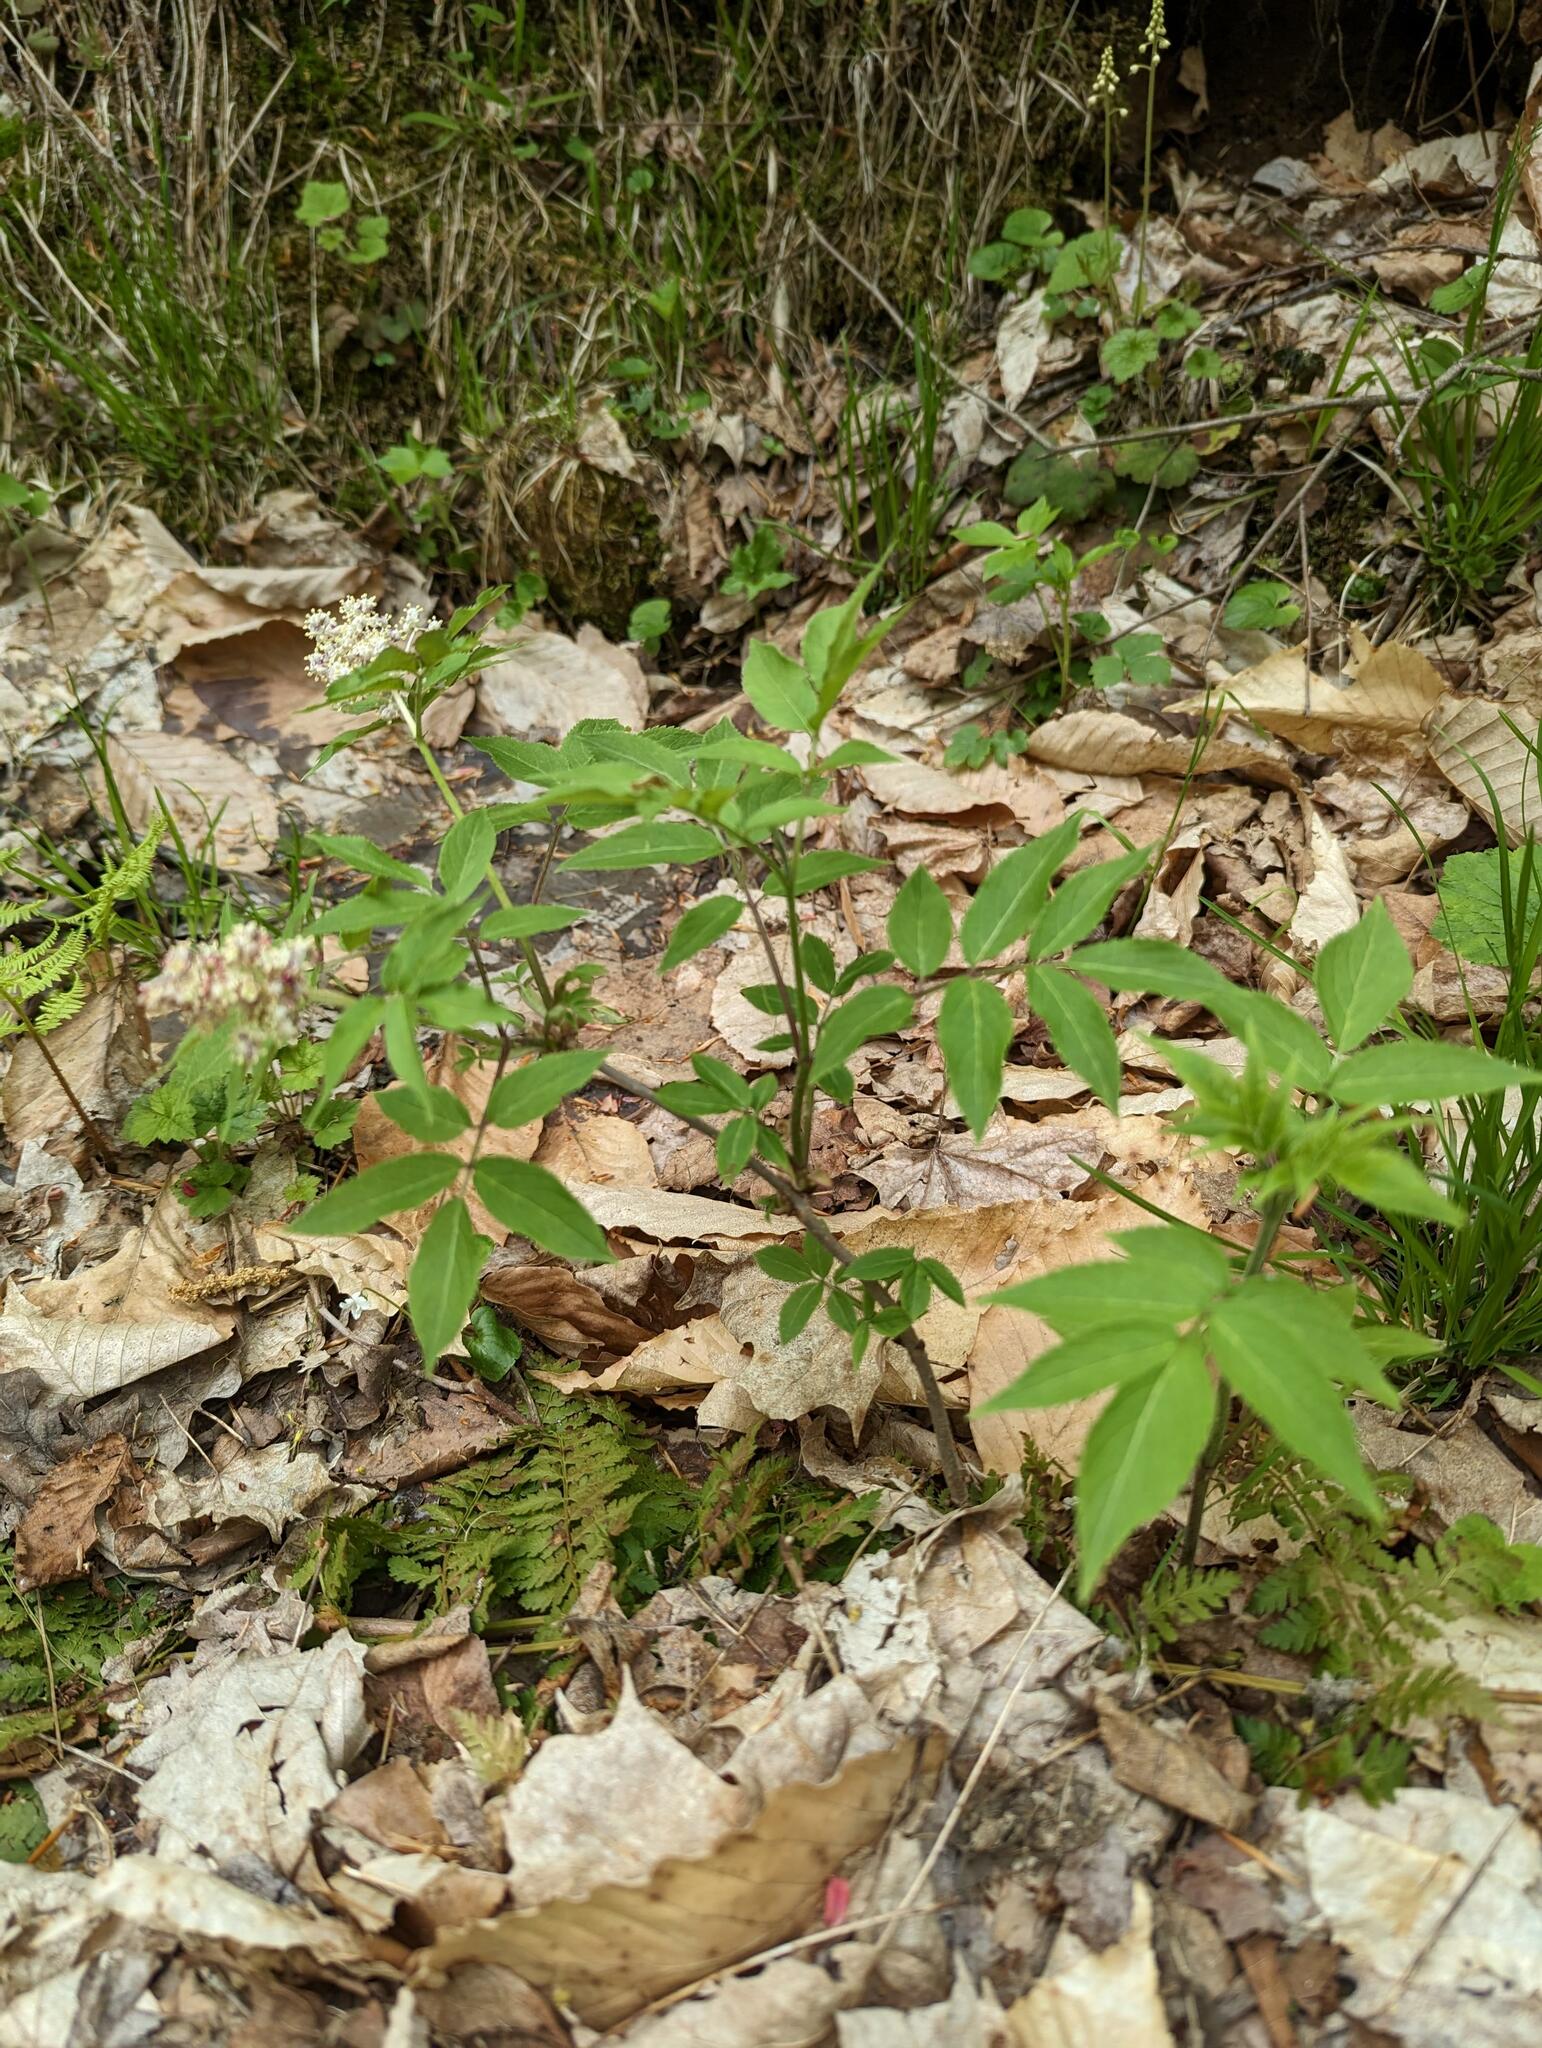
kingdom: Plantae
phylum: Tracheophyta
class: Magnoliopsida
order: Dipsacales
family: Viburnaceae
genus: Sambucus
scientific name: Sambucus racemosa
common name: Red-berried elder
